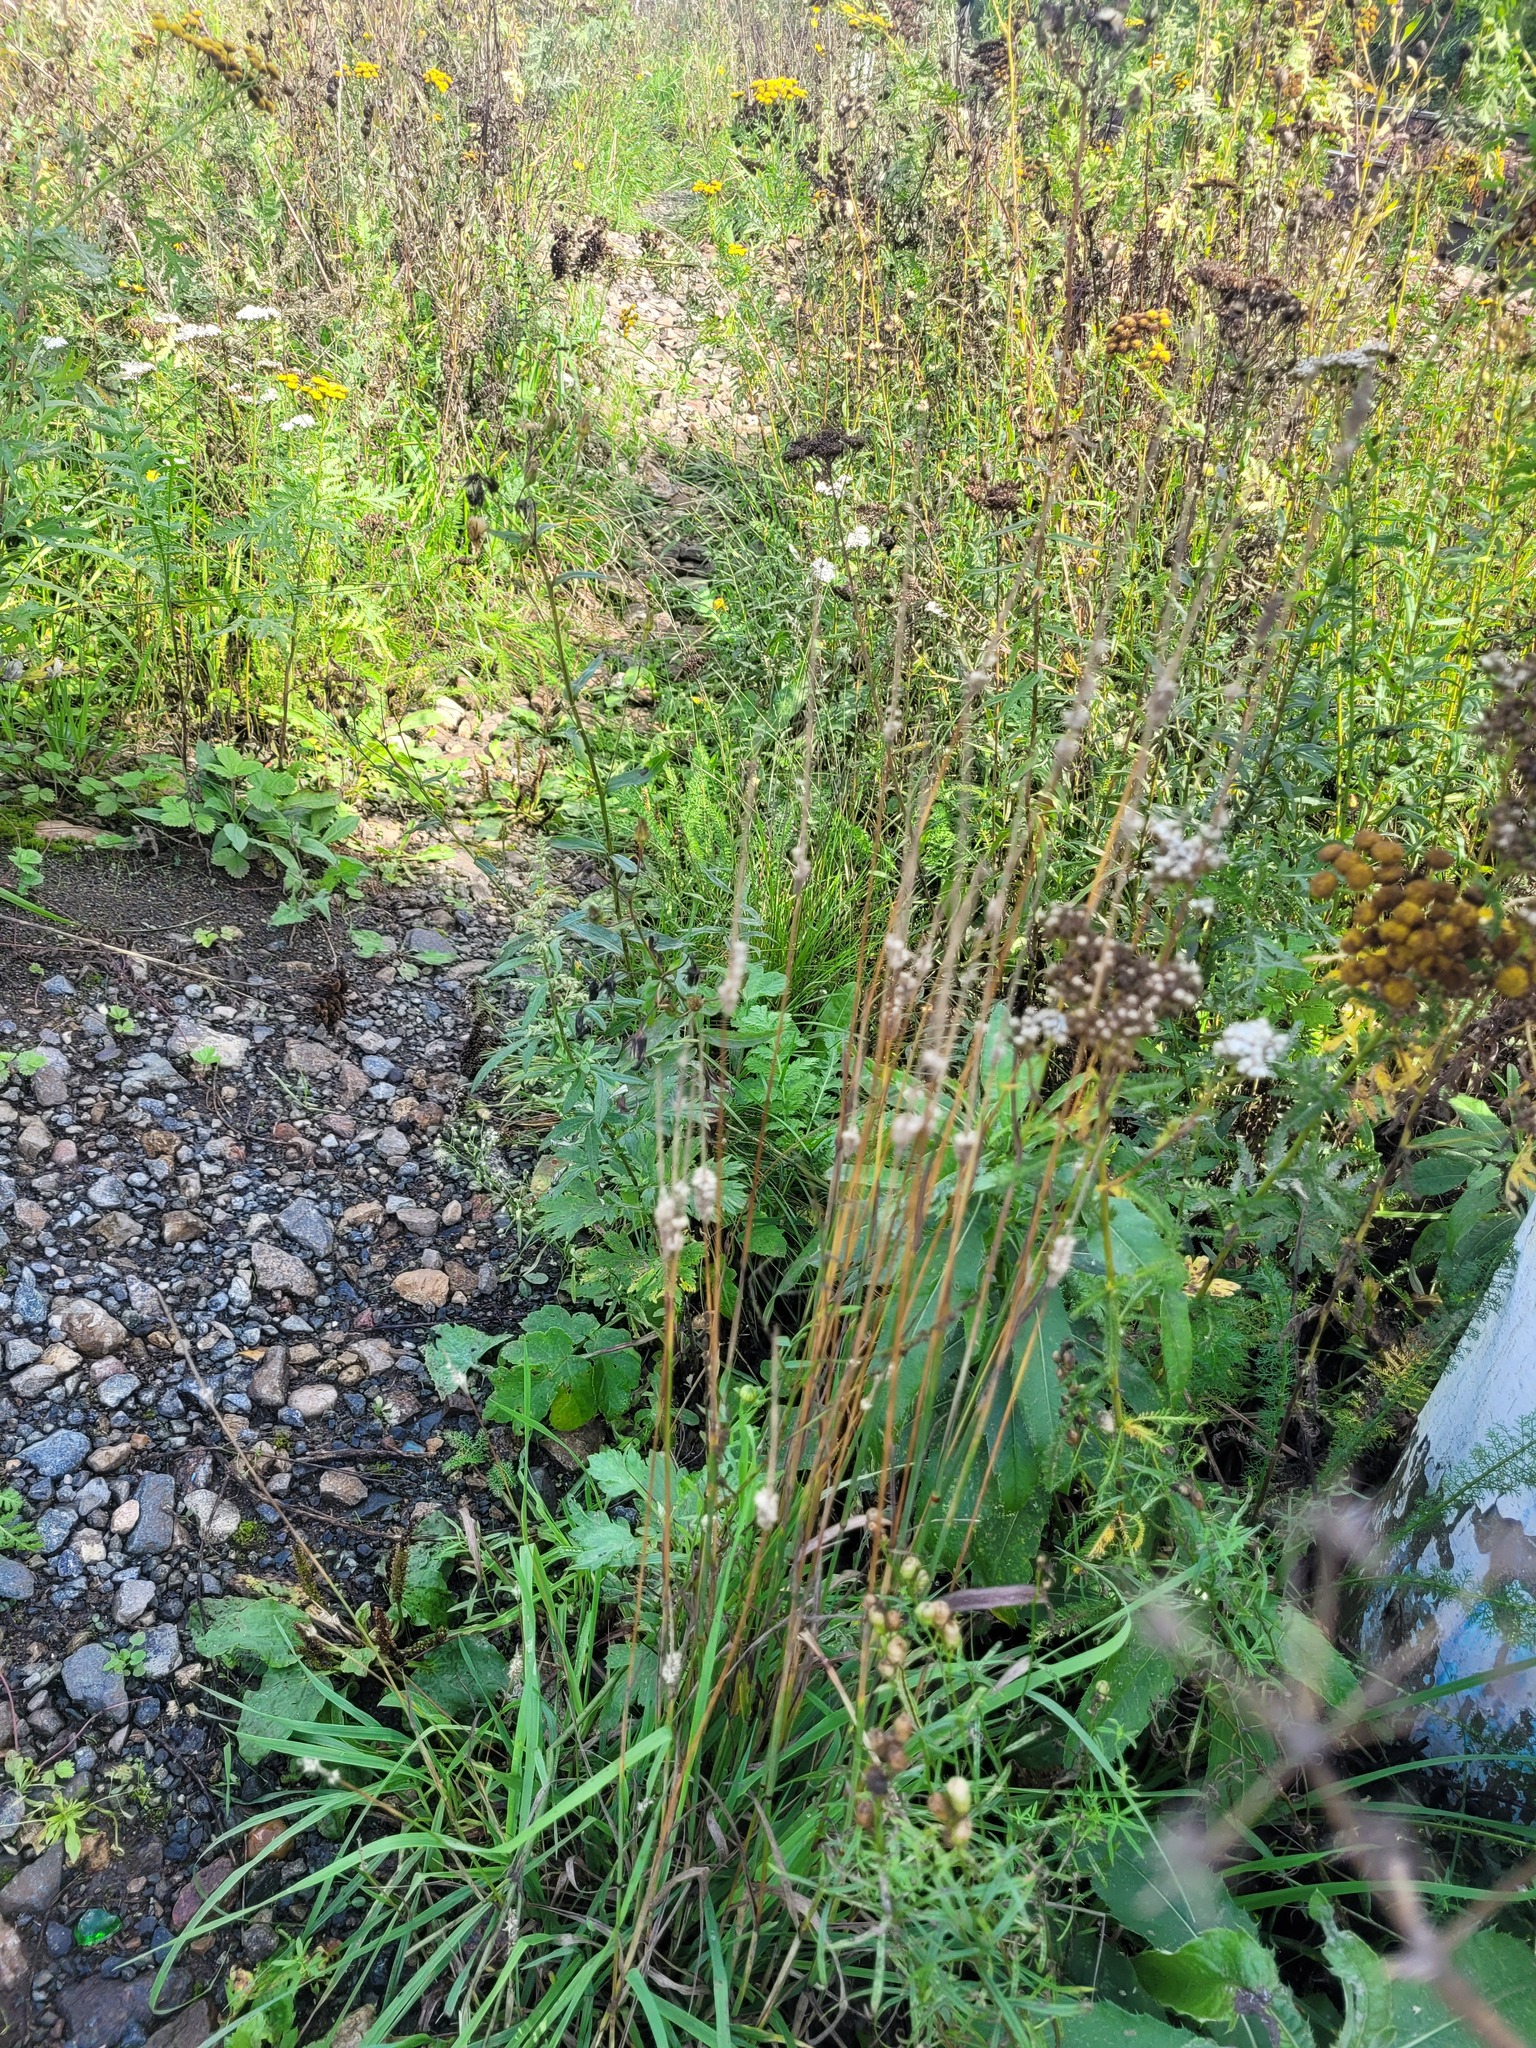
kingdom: Plantae
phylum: Tracheophyta
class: Liliopsida
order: Poales
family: Poaceae
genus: Phleum
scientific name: Phleum pratense
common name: Timothy grass
